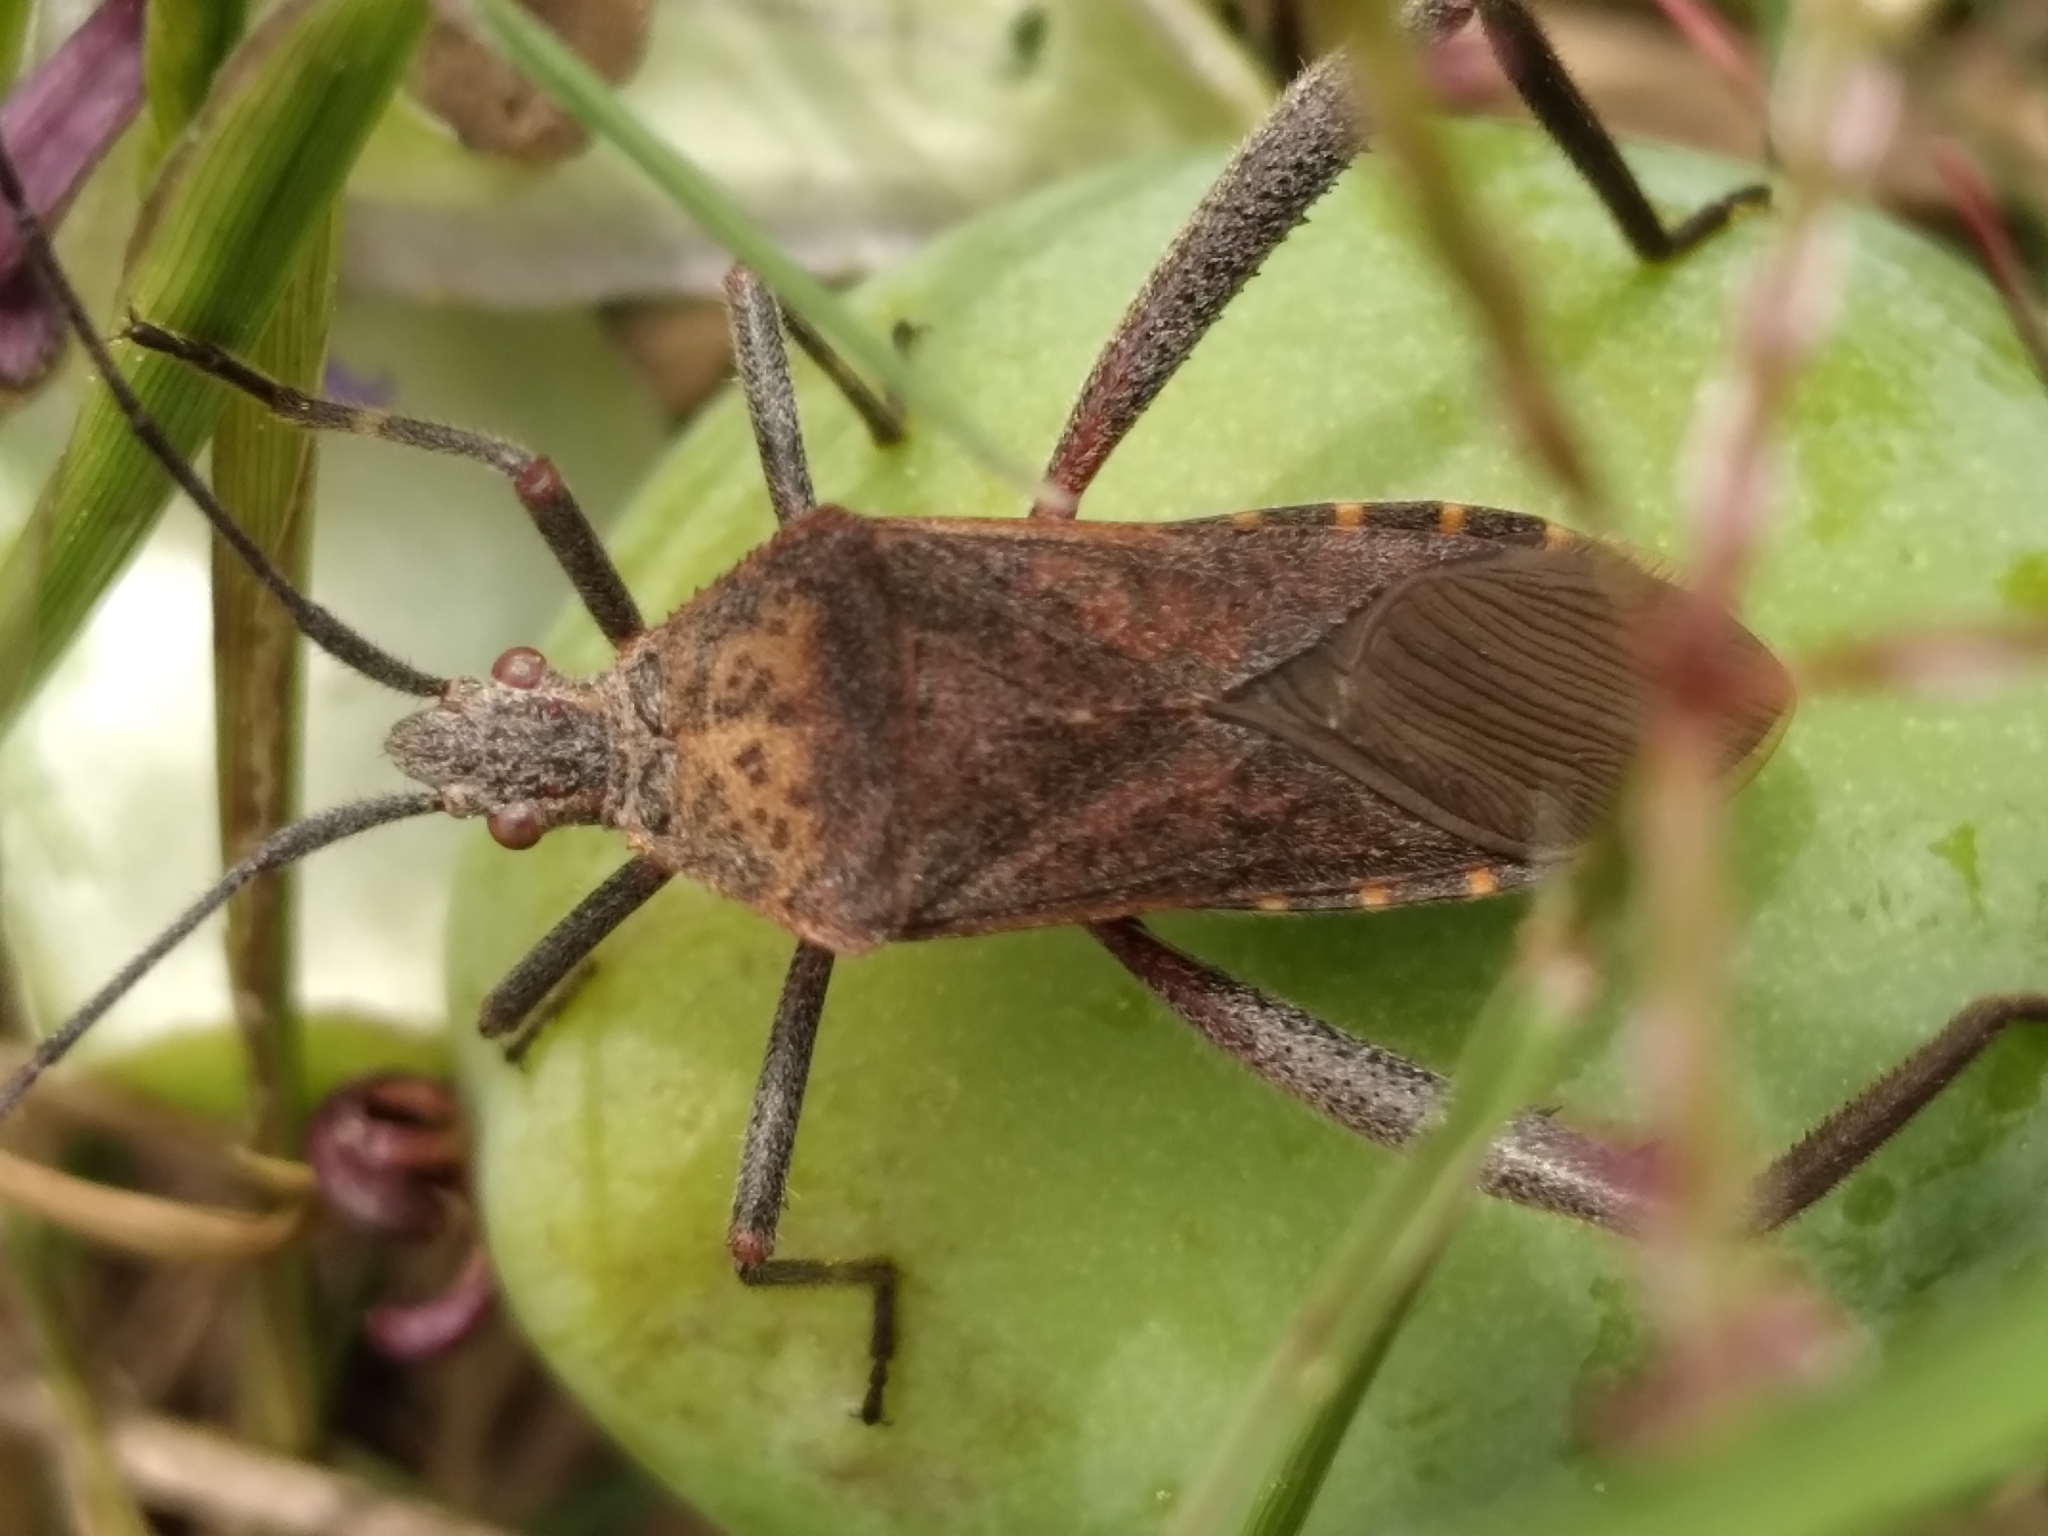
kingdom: Animalia
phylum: Arthropoda
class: Insecta
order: Hemiptera
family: Coreidae
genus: Phthiacnemia
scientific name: Phthiacnemia picta
